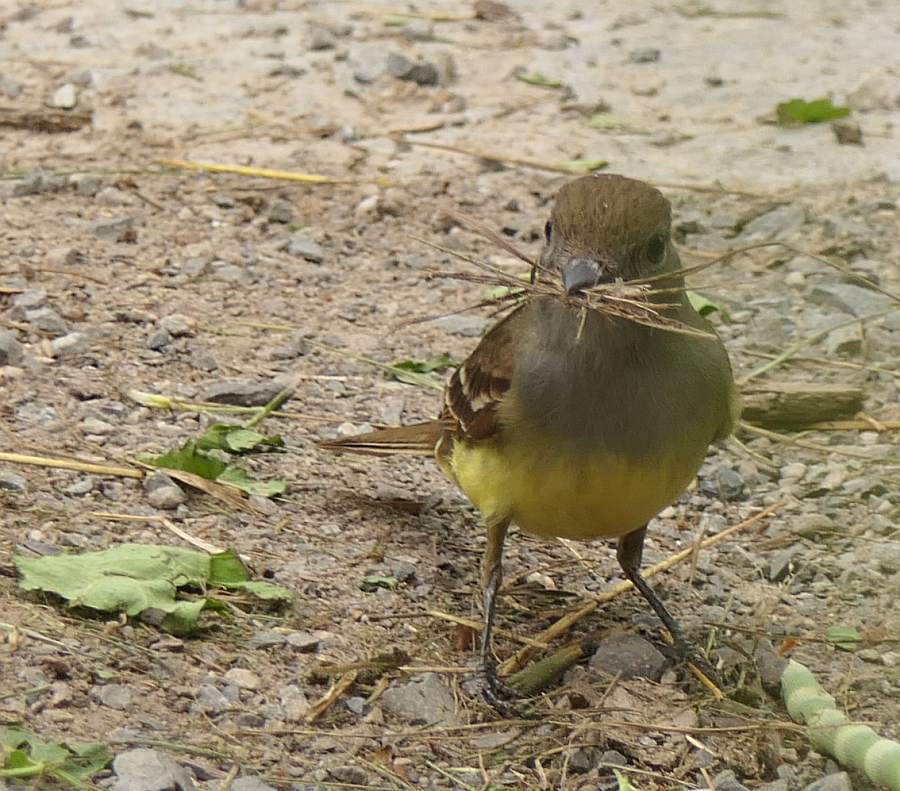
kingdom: Animalia
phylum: Chordata
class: Aves
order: Passeriformes
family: Tyrannidae
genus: Myiarchus
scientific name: Myiarchus crinitus
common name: Great crested flycatcher
